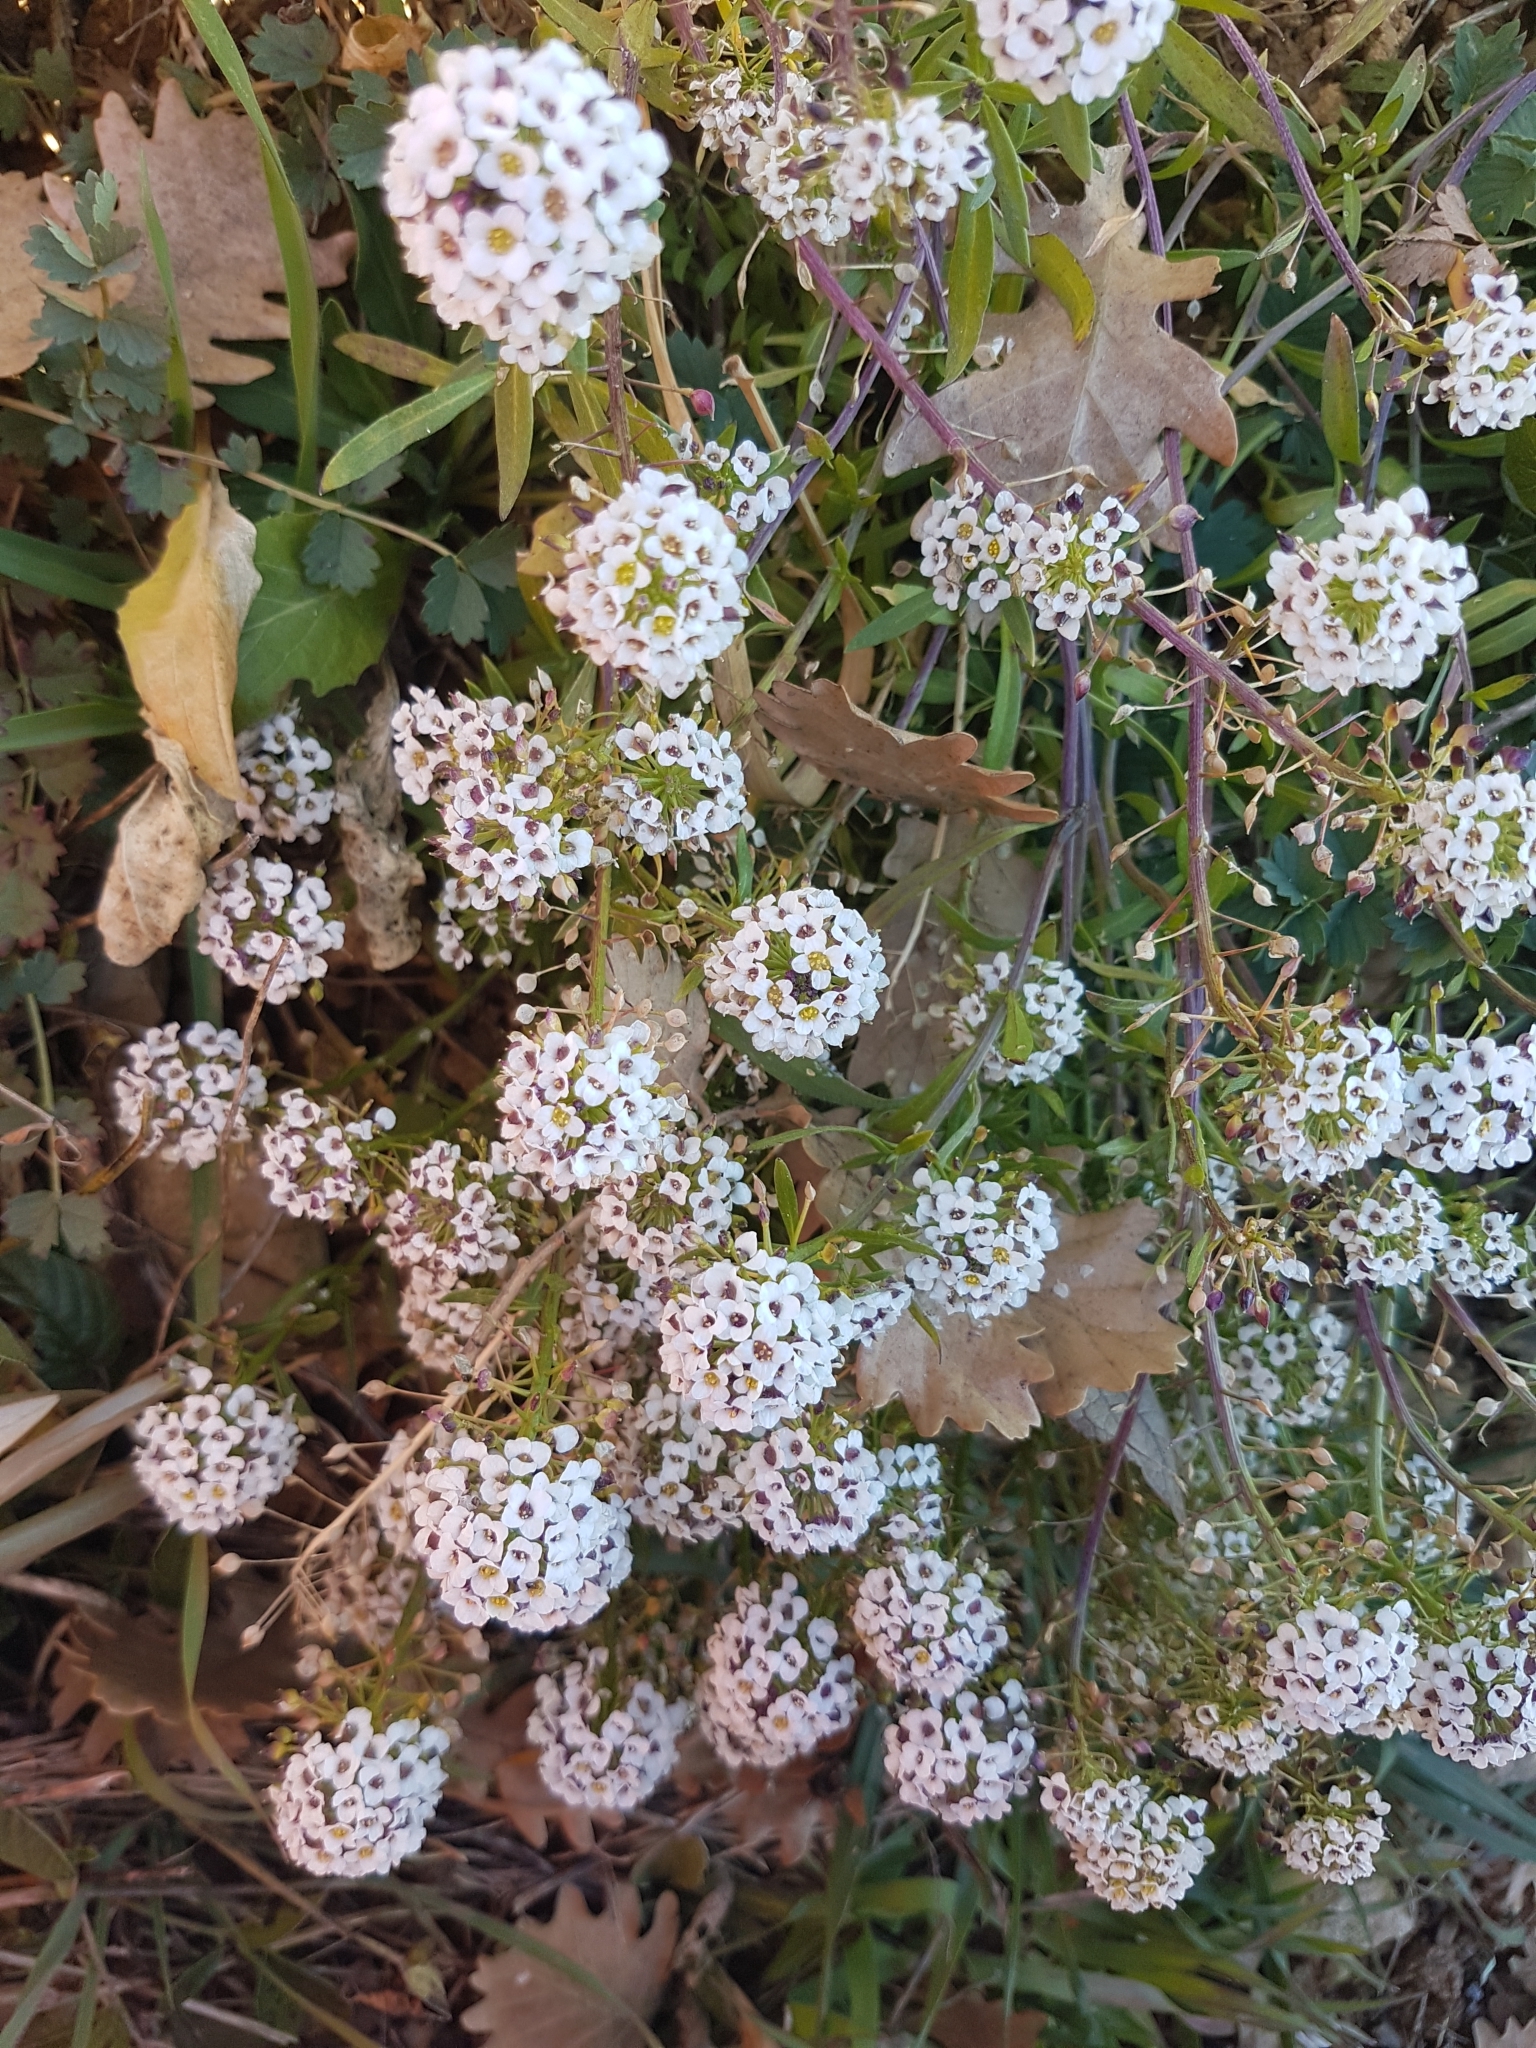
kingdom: Plantae
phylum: Tracheophyta
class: Magnoliopsida
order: Brassicales
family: Brassicaceae
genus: Lobularia
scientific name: Lobularia maritima
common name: Sweet alison
